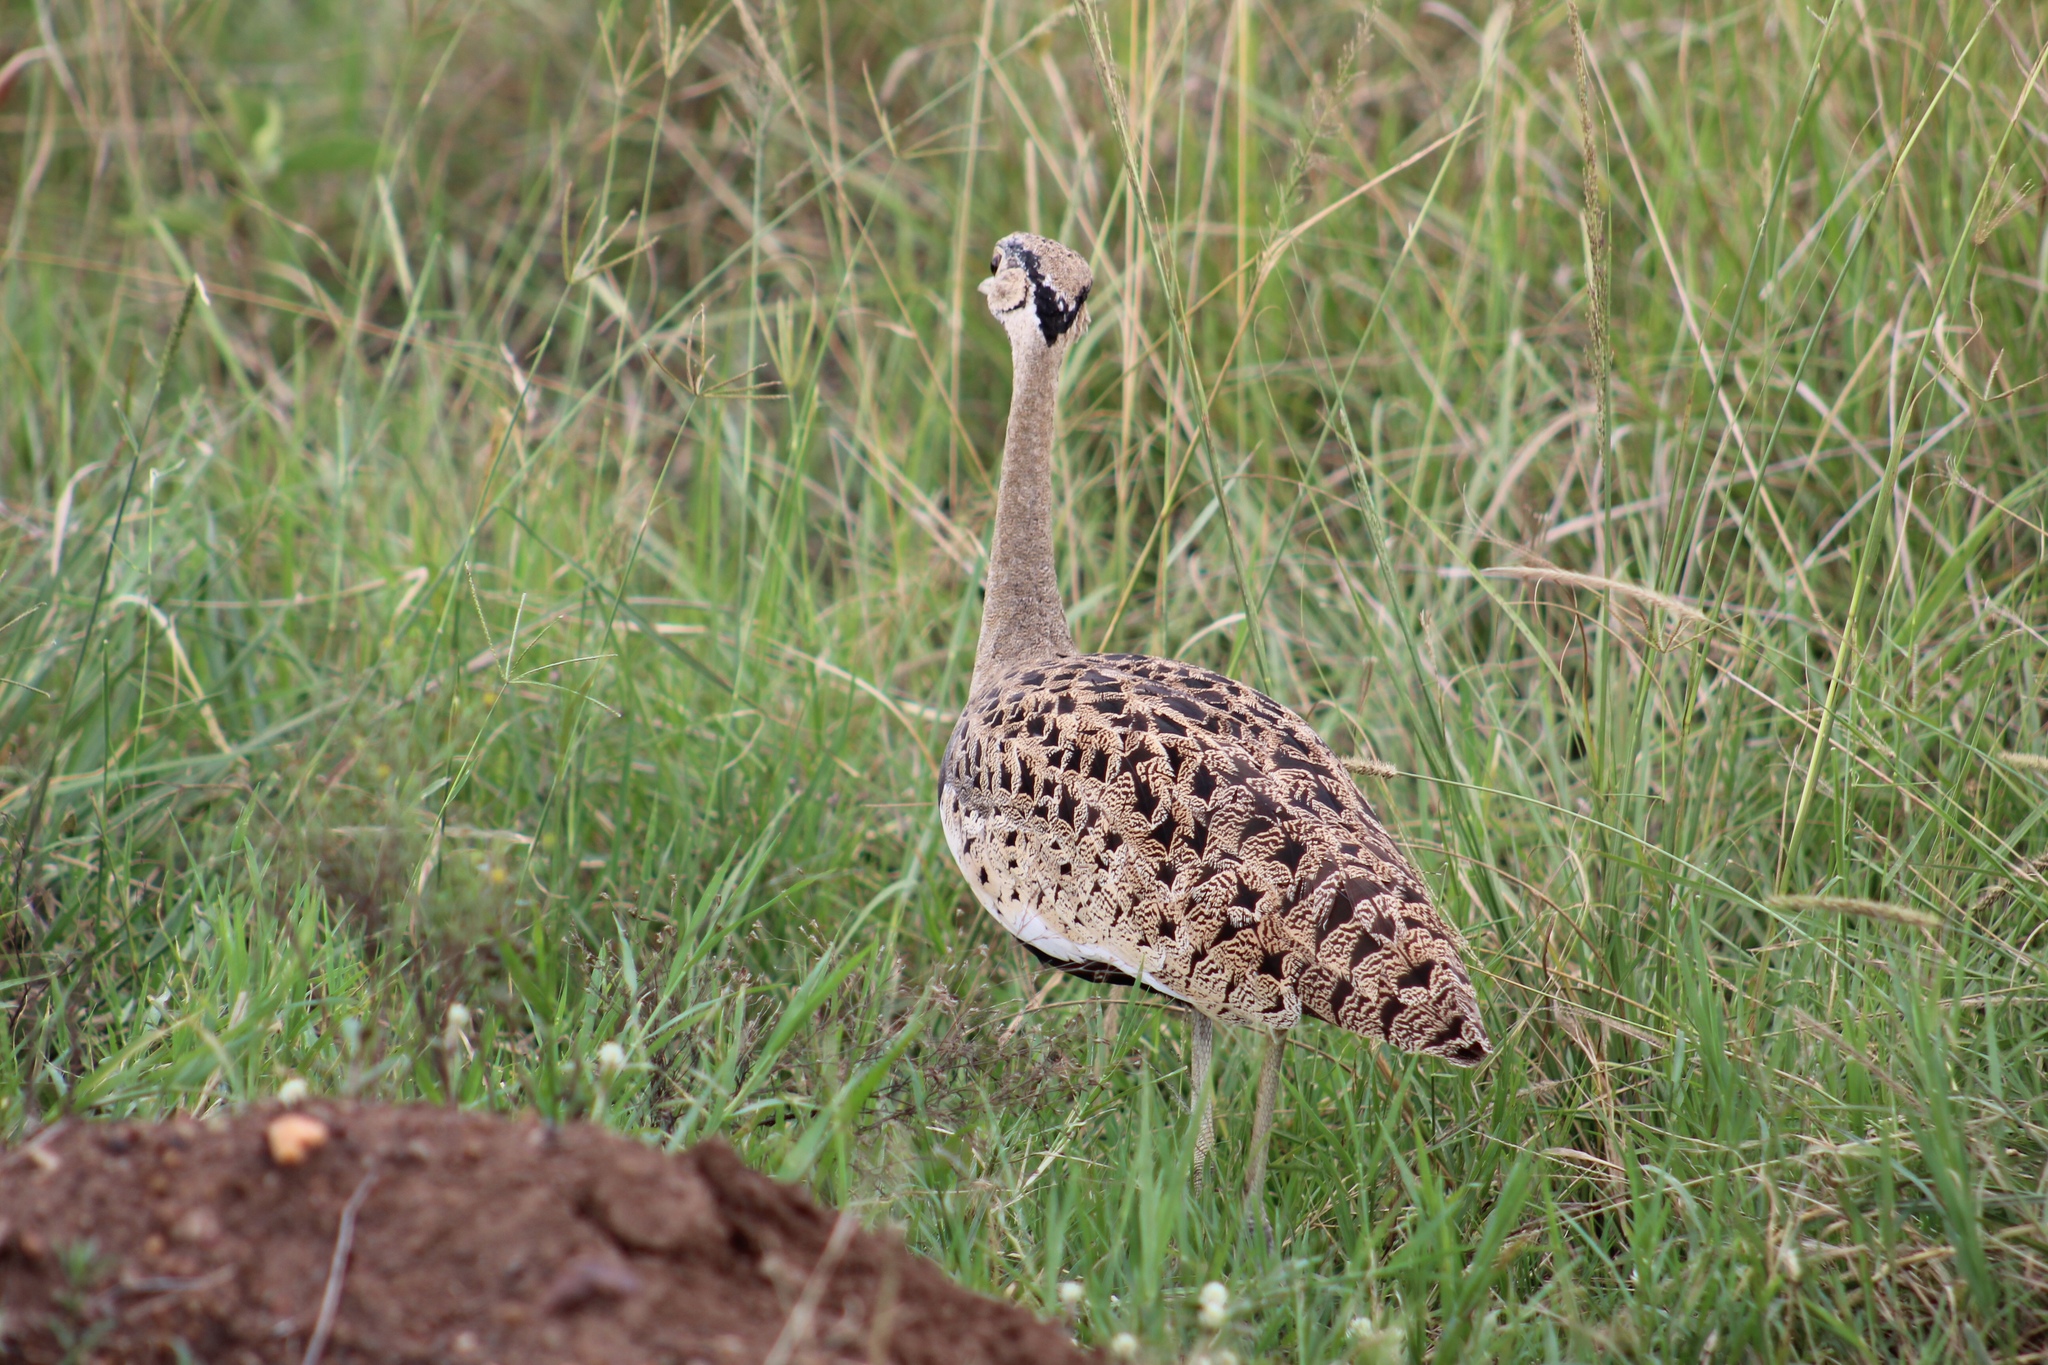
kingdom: Animalia
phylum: Chordata
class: Aves
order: Otidiformes
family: Otididae
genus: Lissotis
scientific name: Lissotis melanogaster
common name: Black-bellied bustard
